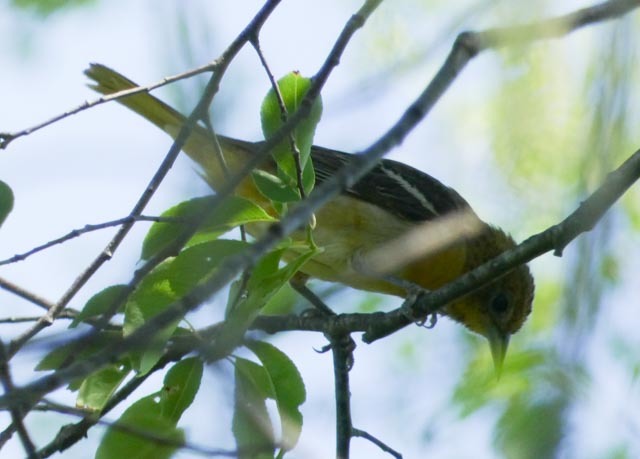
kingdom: Animalia
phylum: Chordata
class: Aves
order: Passeriformes
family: Icteridae
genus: Icterus
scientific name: Icterus galbula
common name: Baltimore oriole
